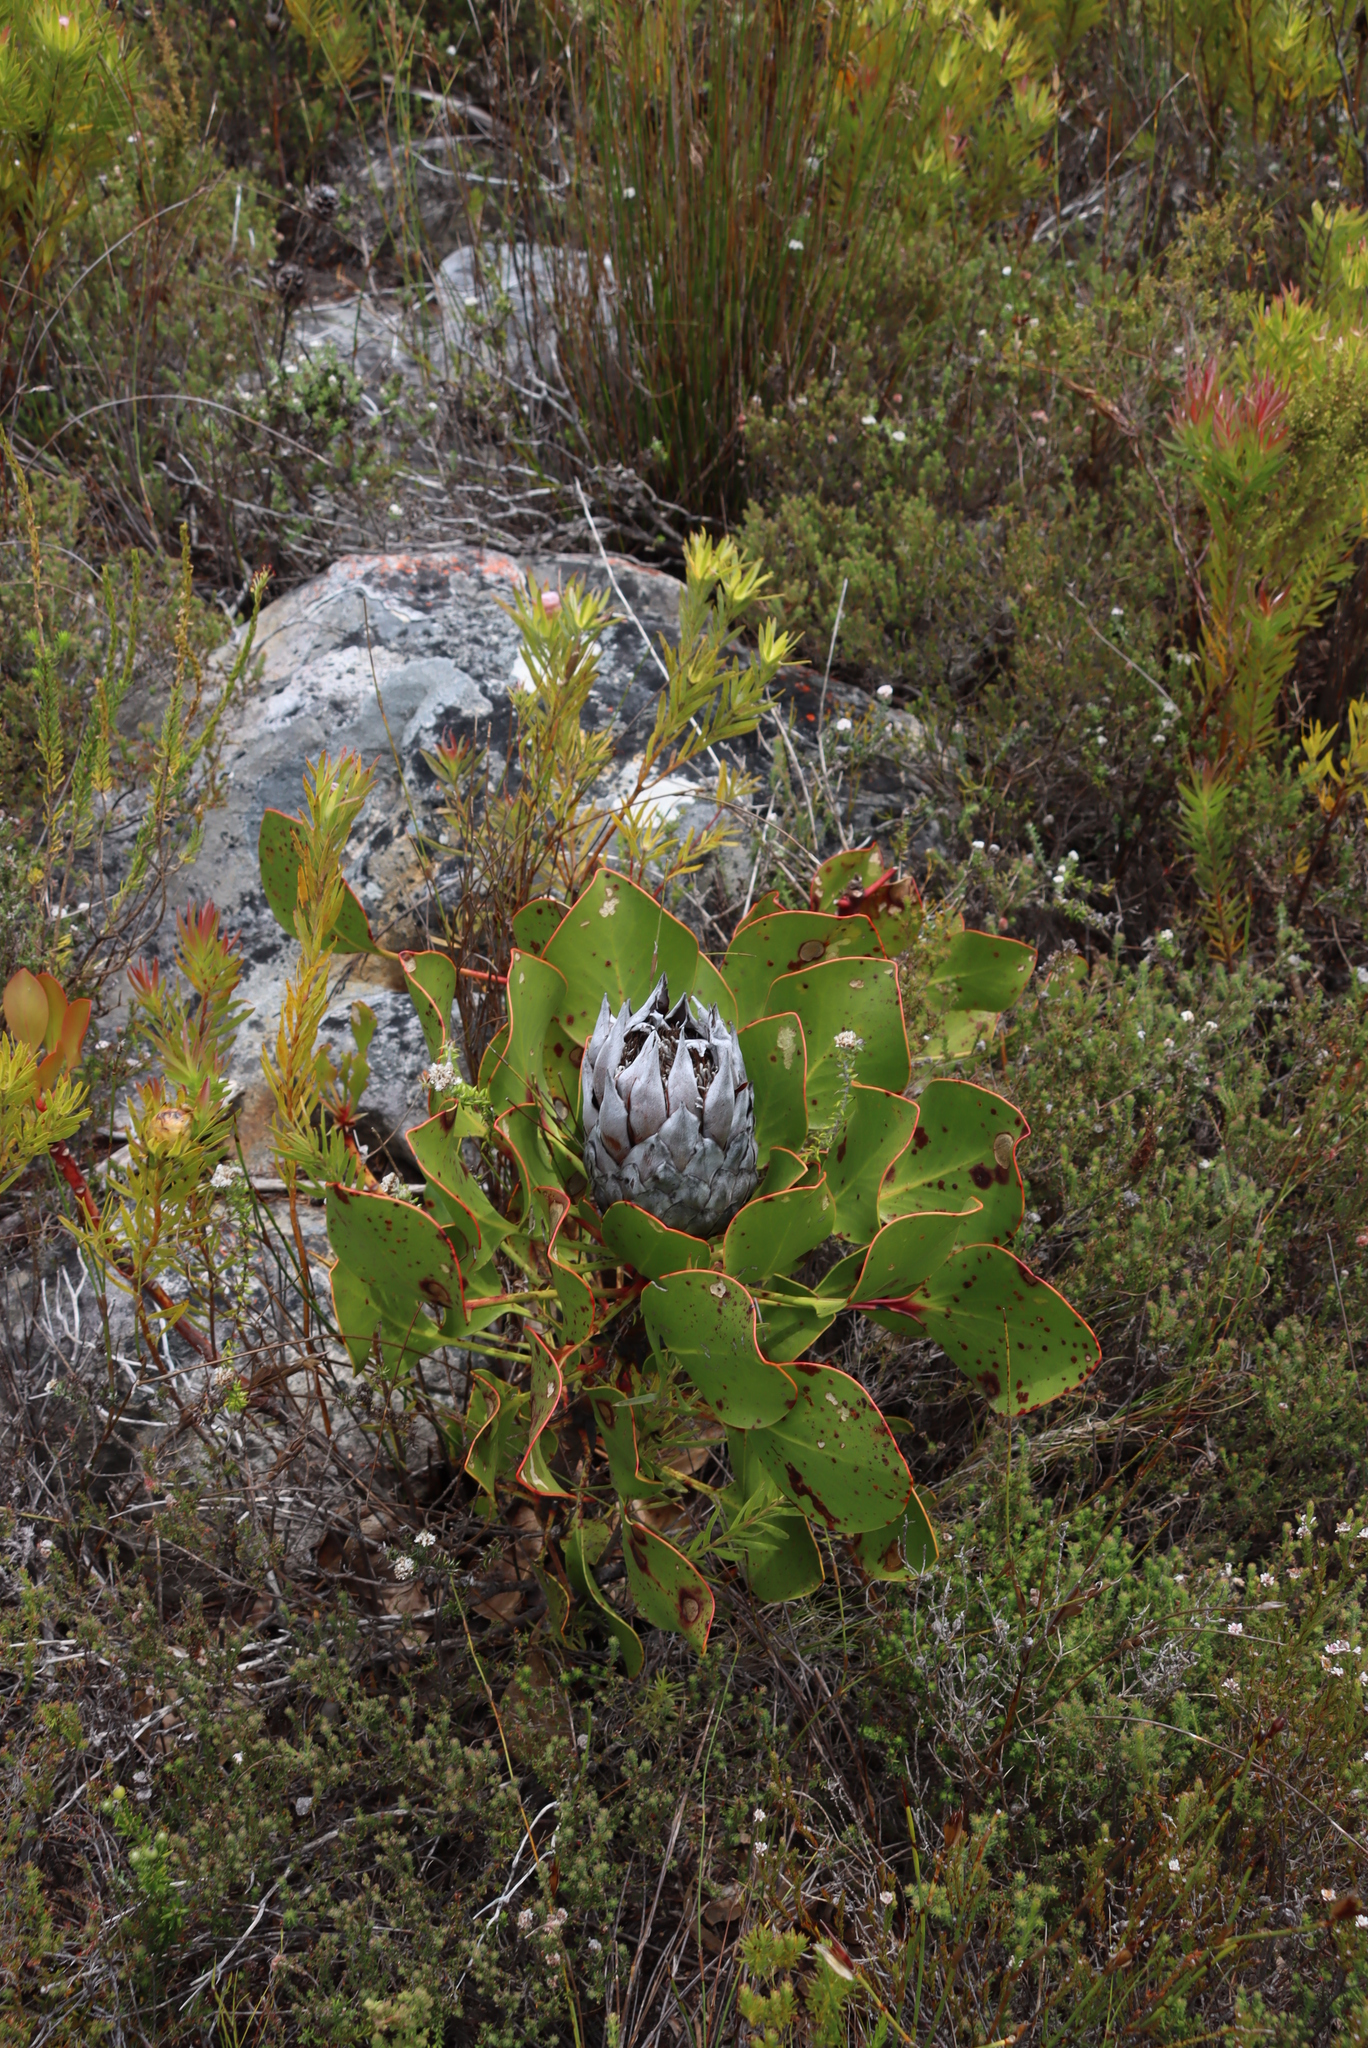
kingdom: Plantae
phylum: Tracheophyta
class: Magnoliopsida
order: Proteales
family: Proteaceae
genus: Protea
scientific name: Protea cynaroides
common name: King protea
